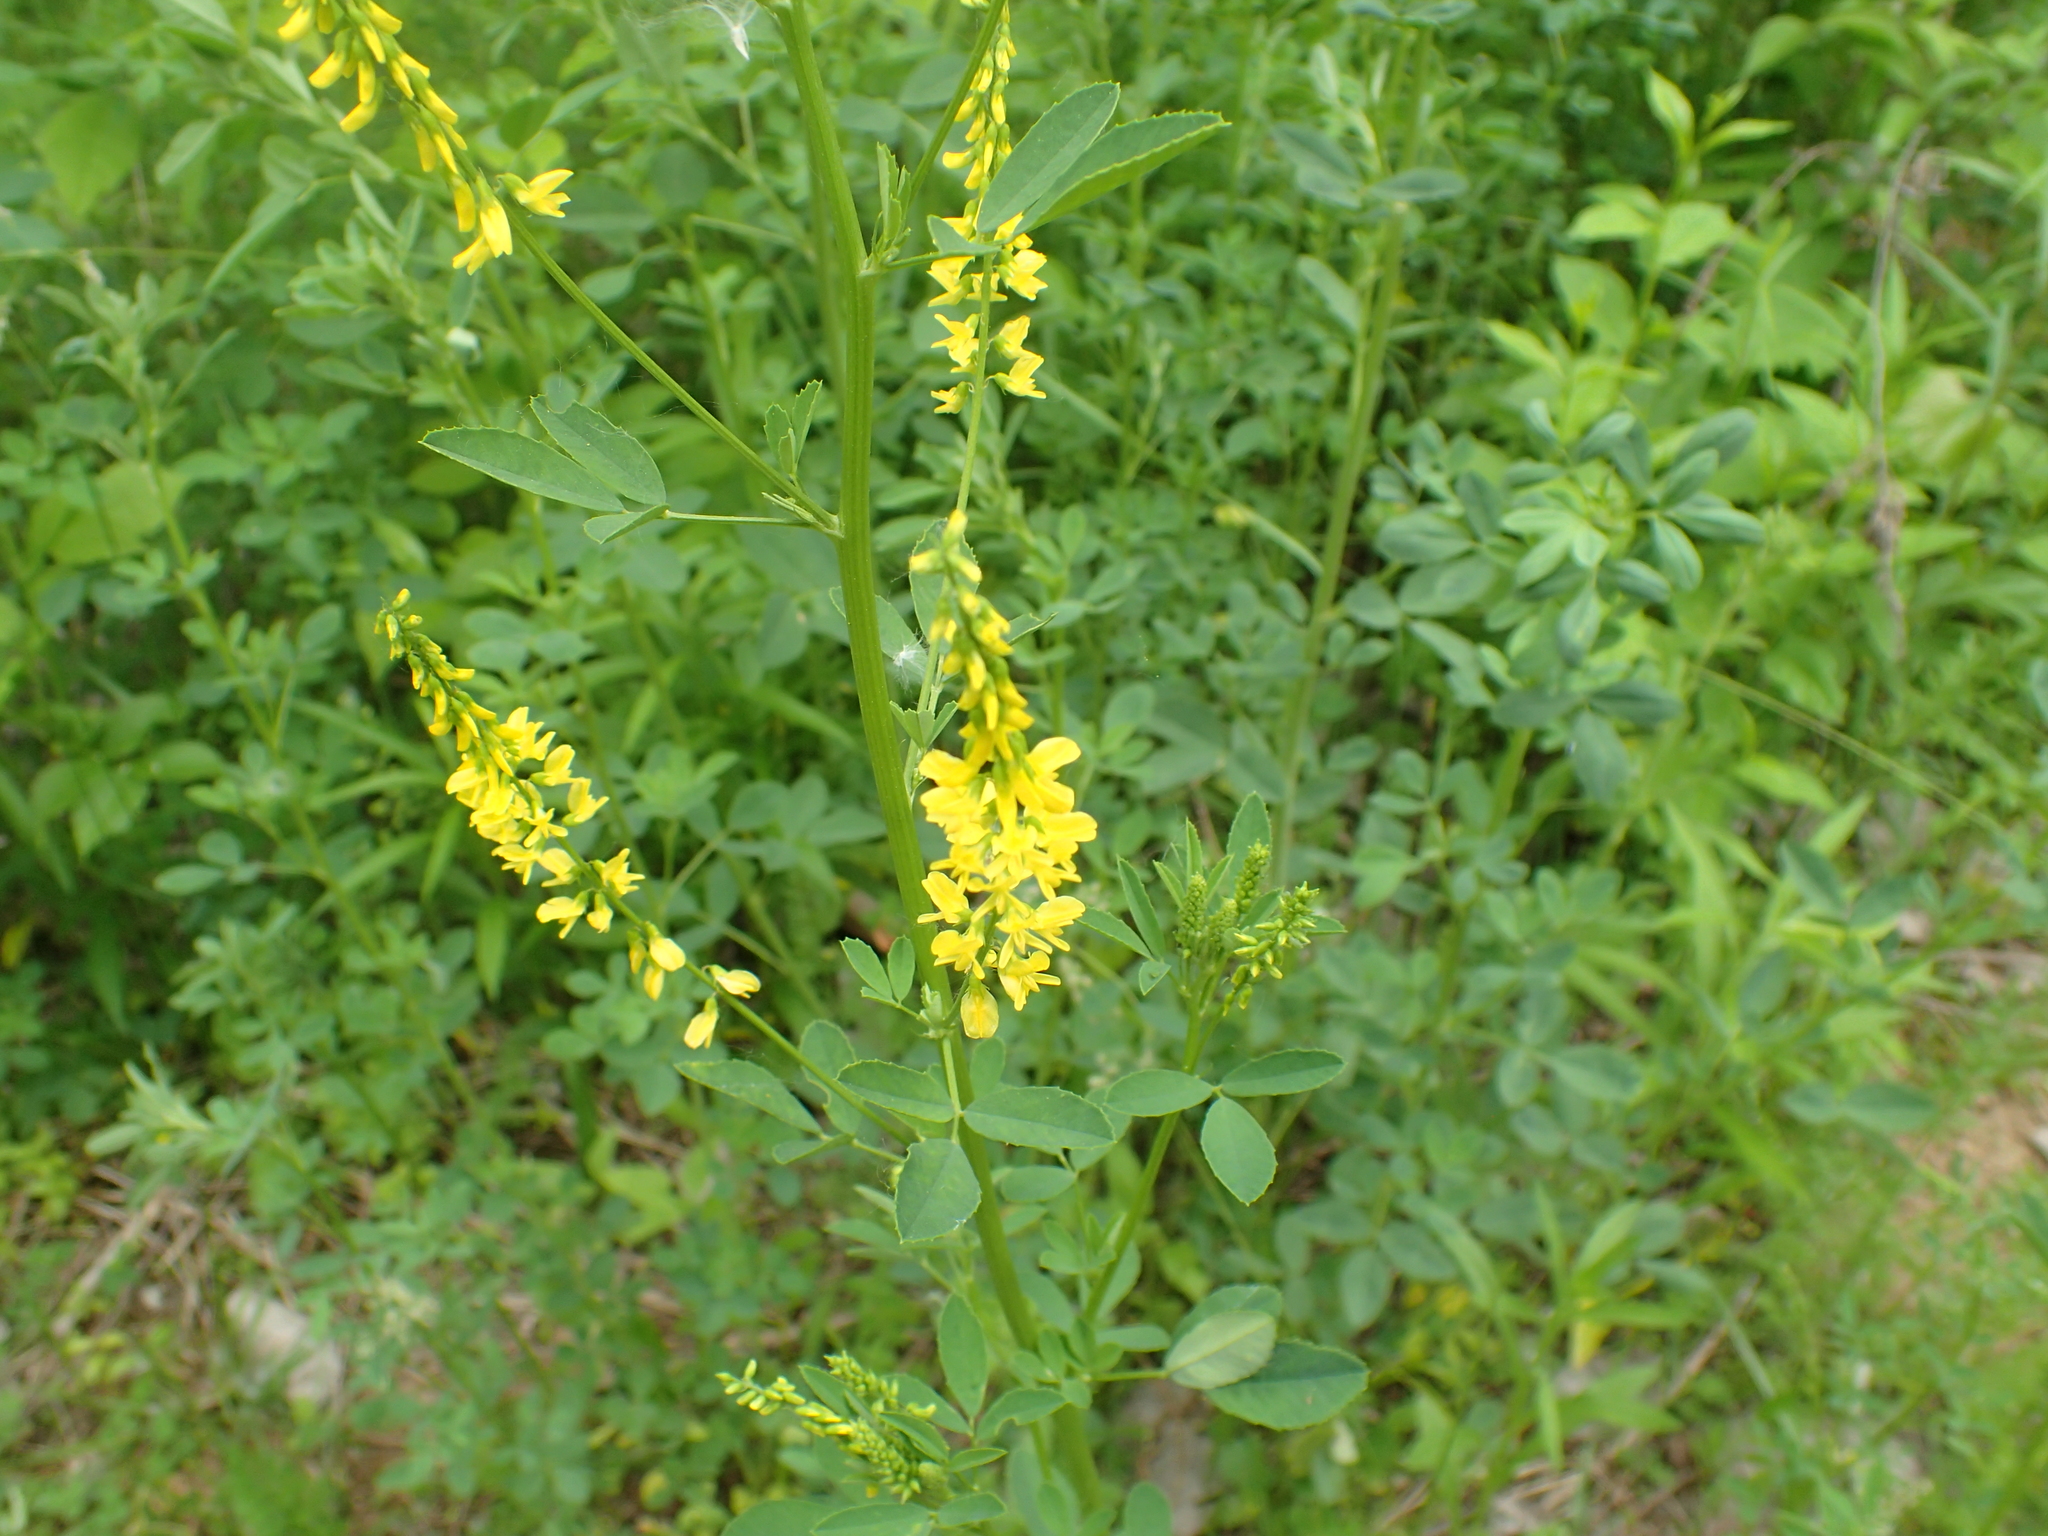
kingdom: Plantae
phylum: Tracheophyta
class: Magnoliopsida
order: Fabales
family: Fabaceae
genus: Melilotus
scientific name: Melilotus officinalis
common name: Sweetclover
